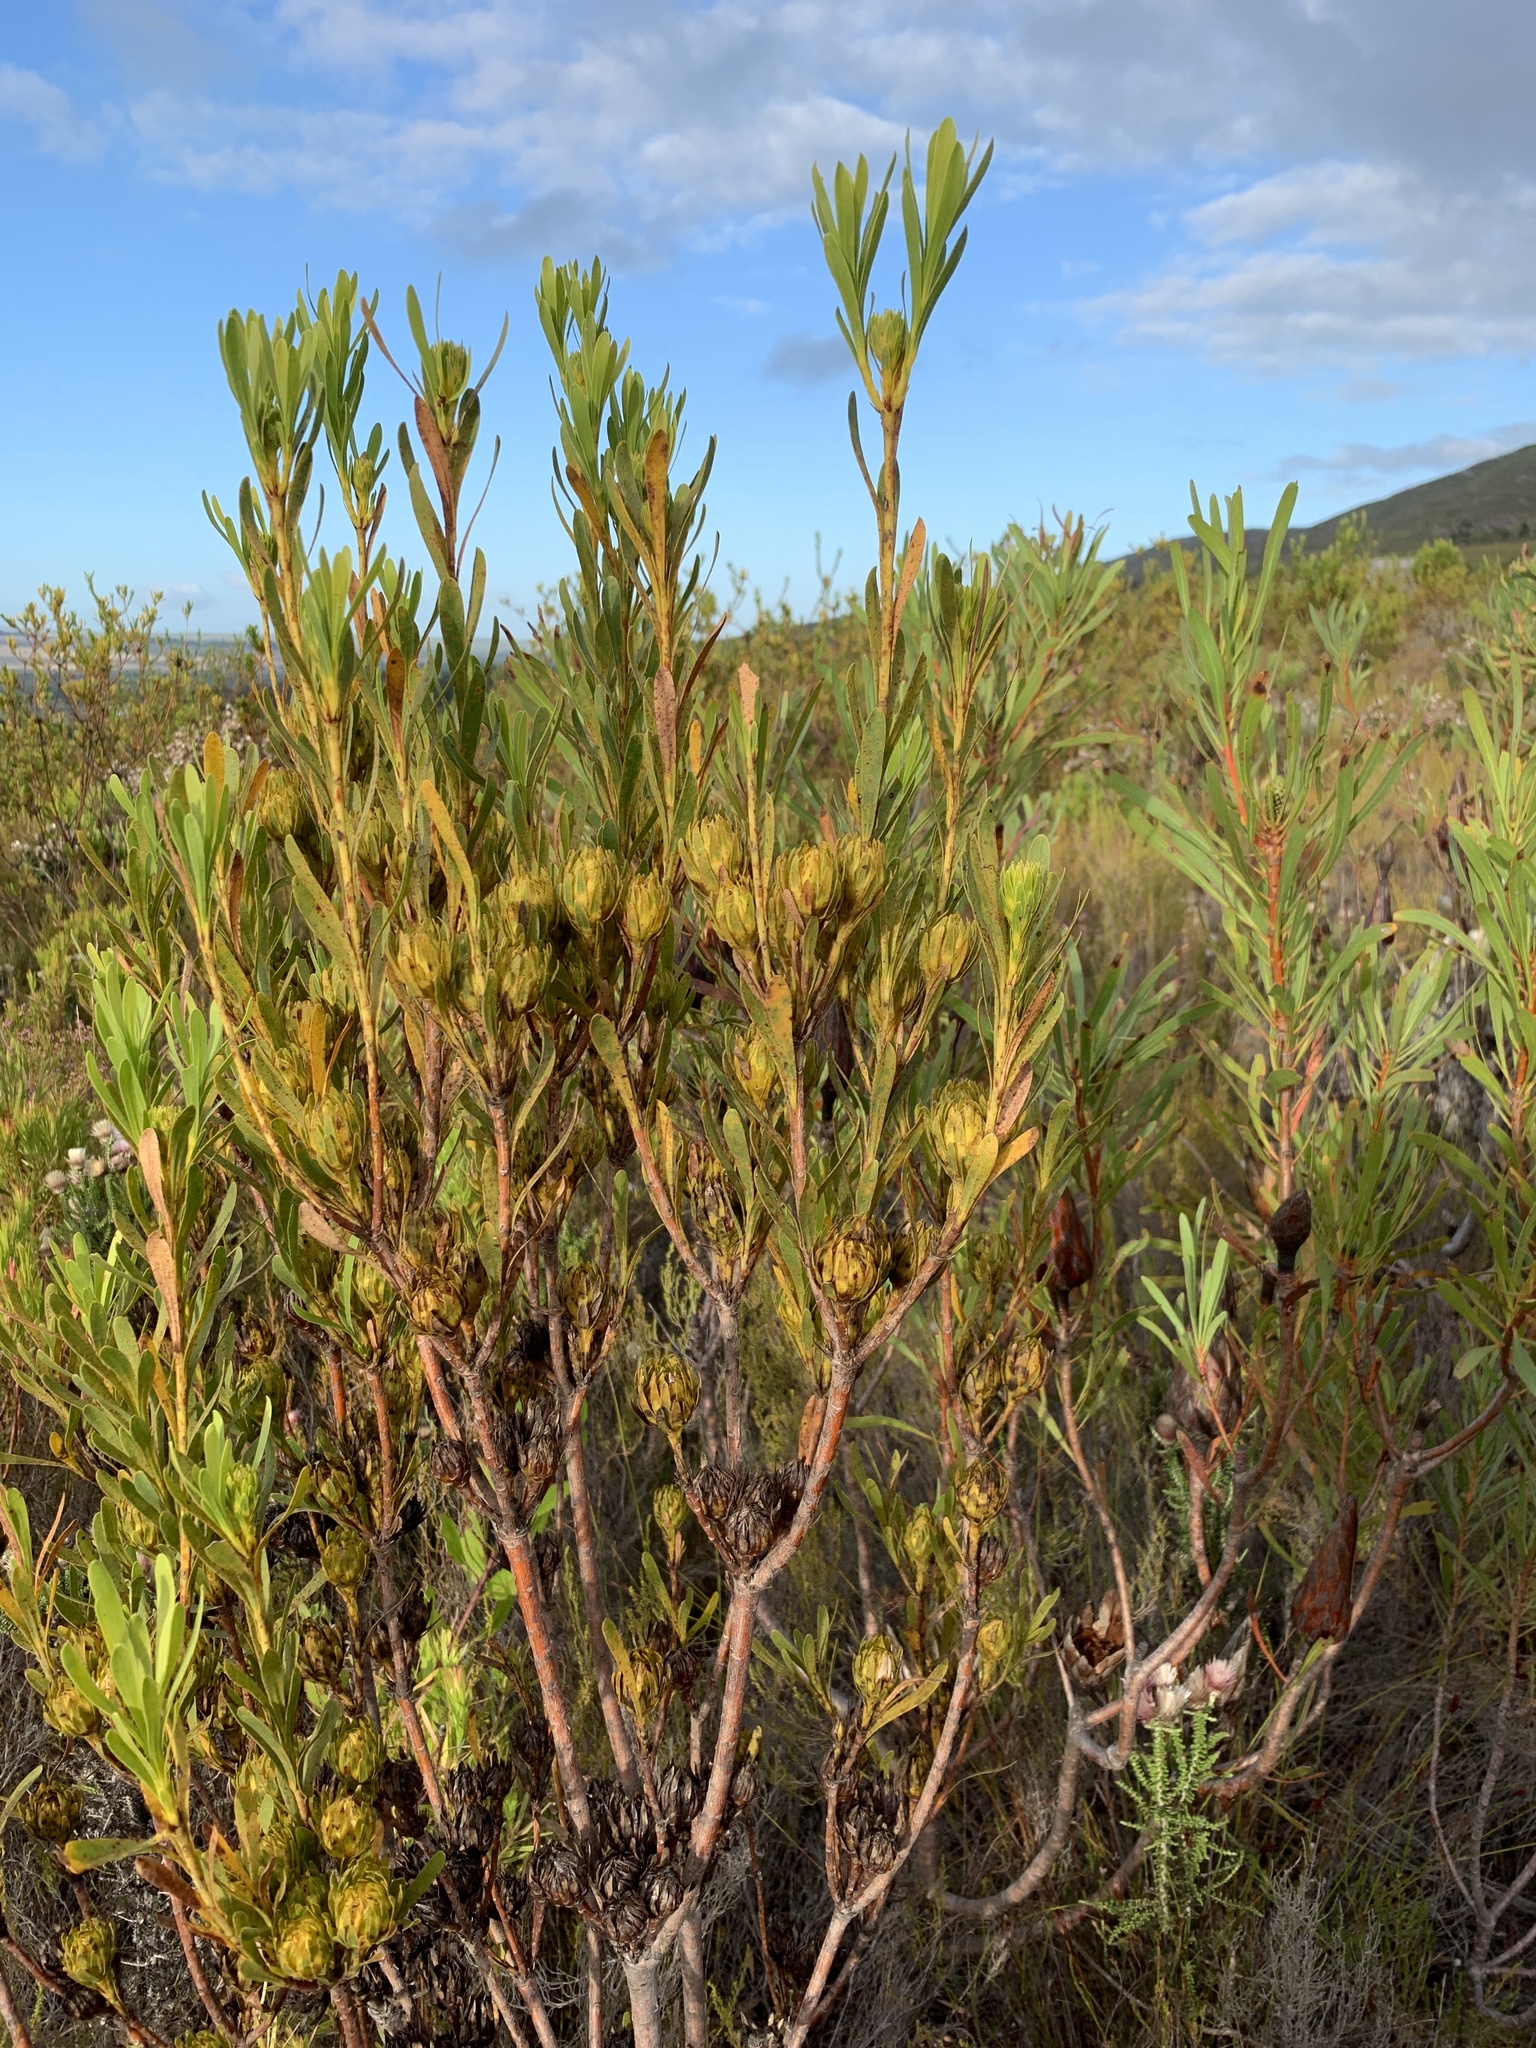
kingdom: Plantae
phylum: Tracheophyta
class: Magnoliopsida
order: Proteales
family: Proteaceae
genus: Aulax
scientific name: Aulax umbellata
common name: Broad-leaf featherbush
